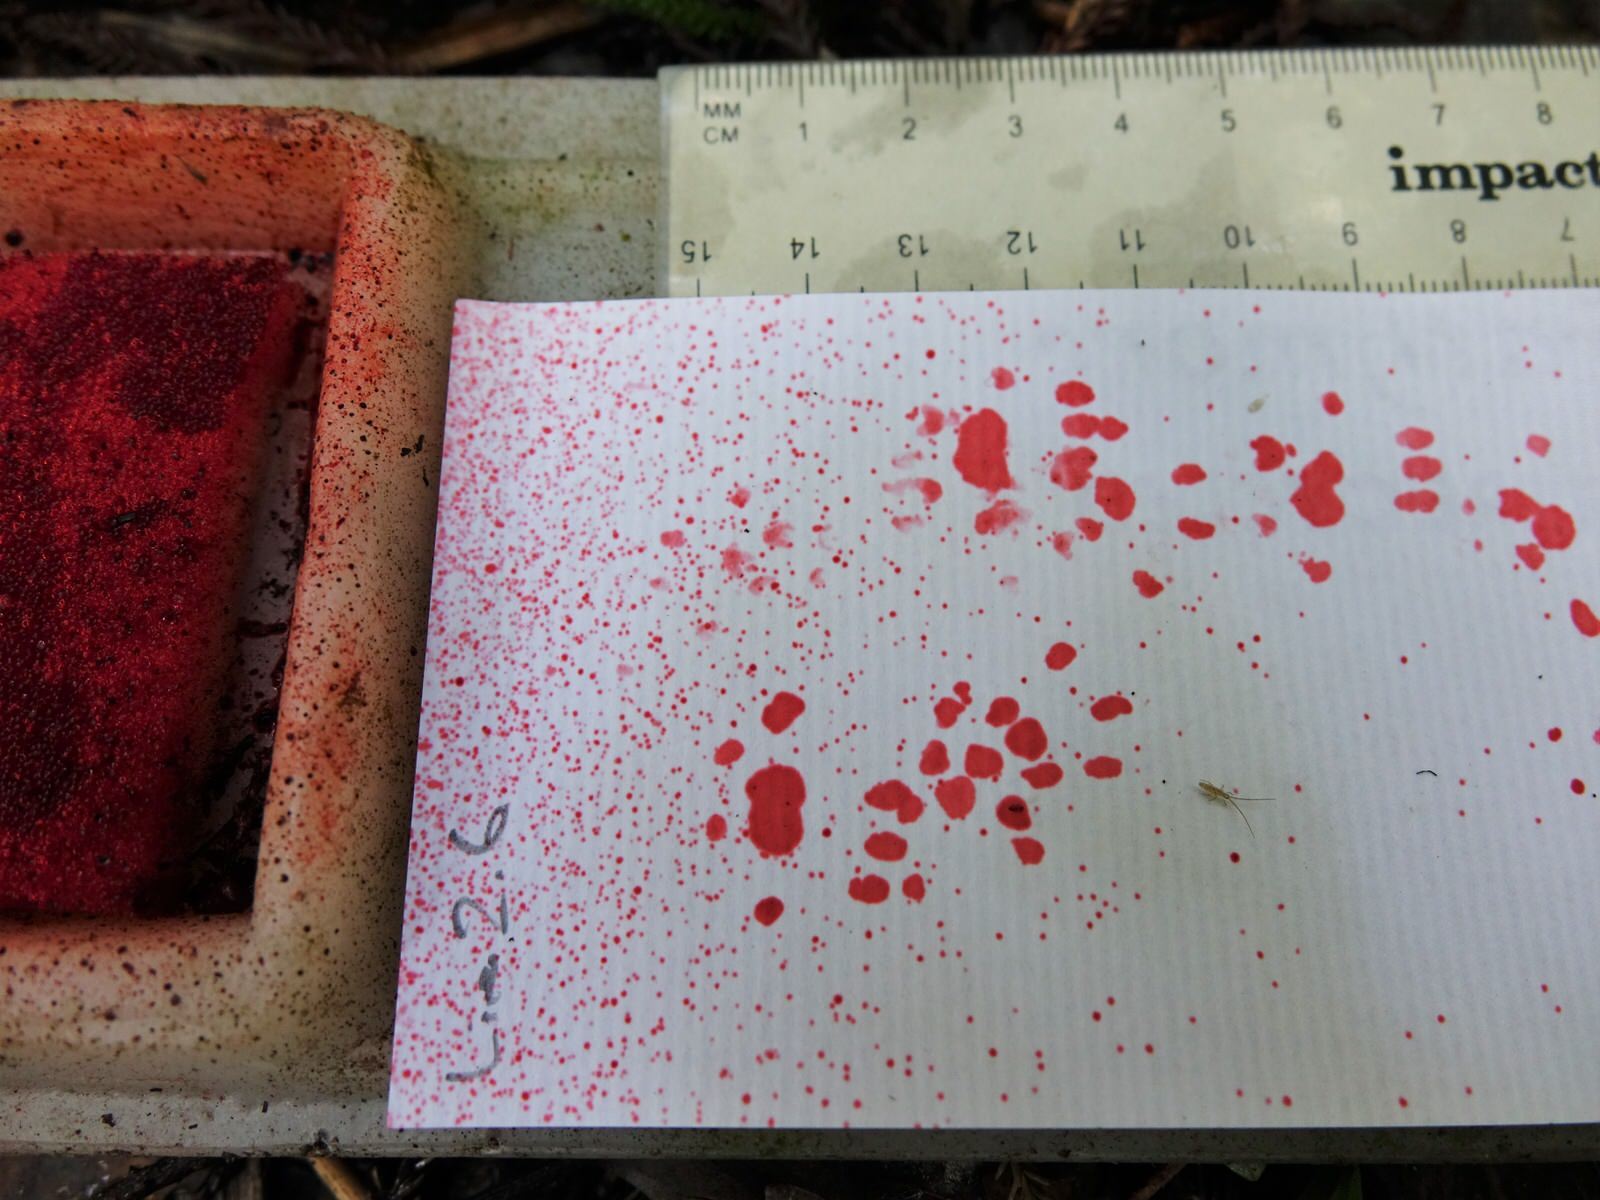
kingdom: Animalia
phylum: Chordata
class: Mammalia
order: Rodentia
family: Muridae
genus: Rattus
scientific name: Rattus rattus
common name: Black rat
